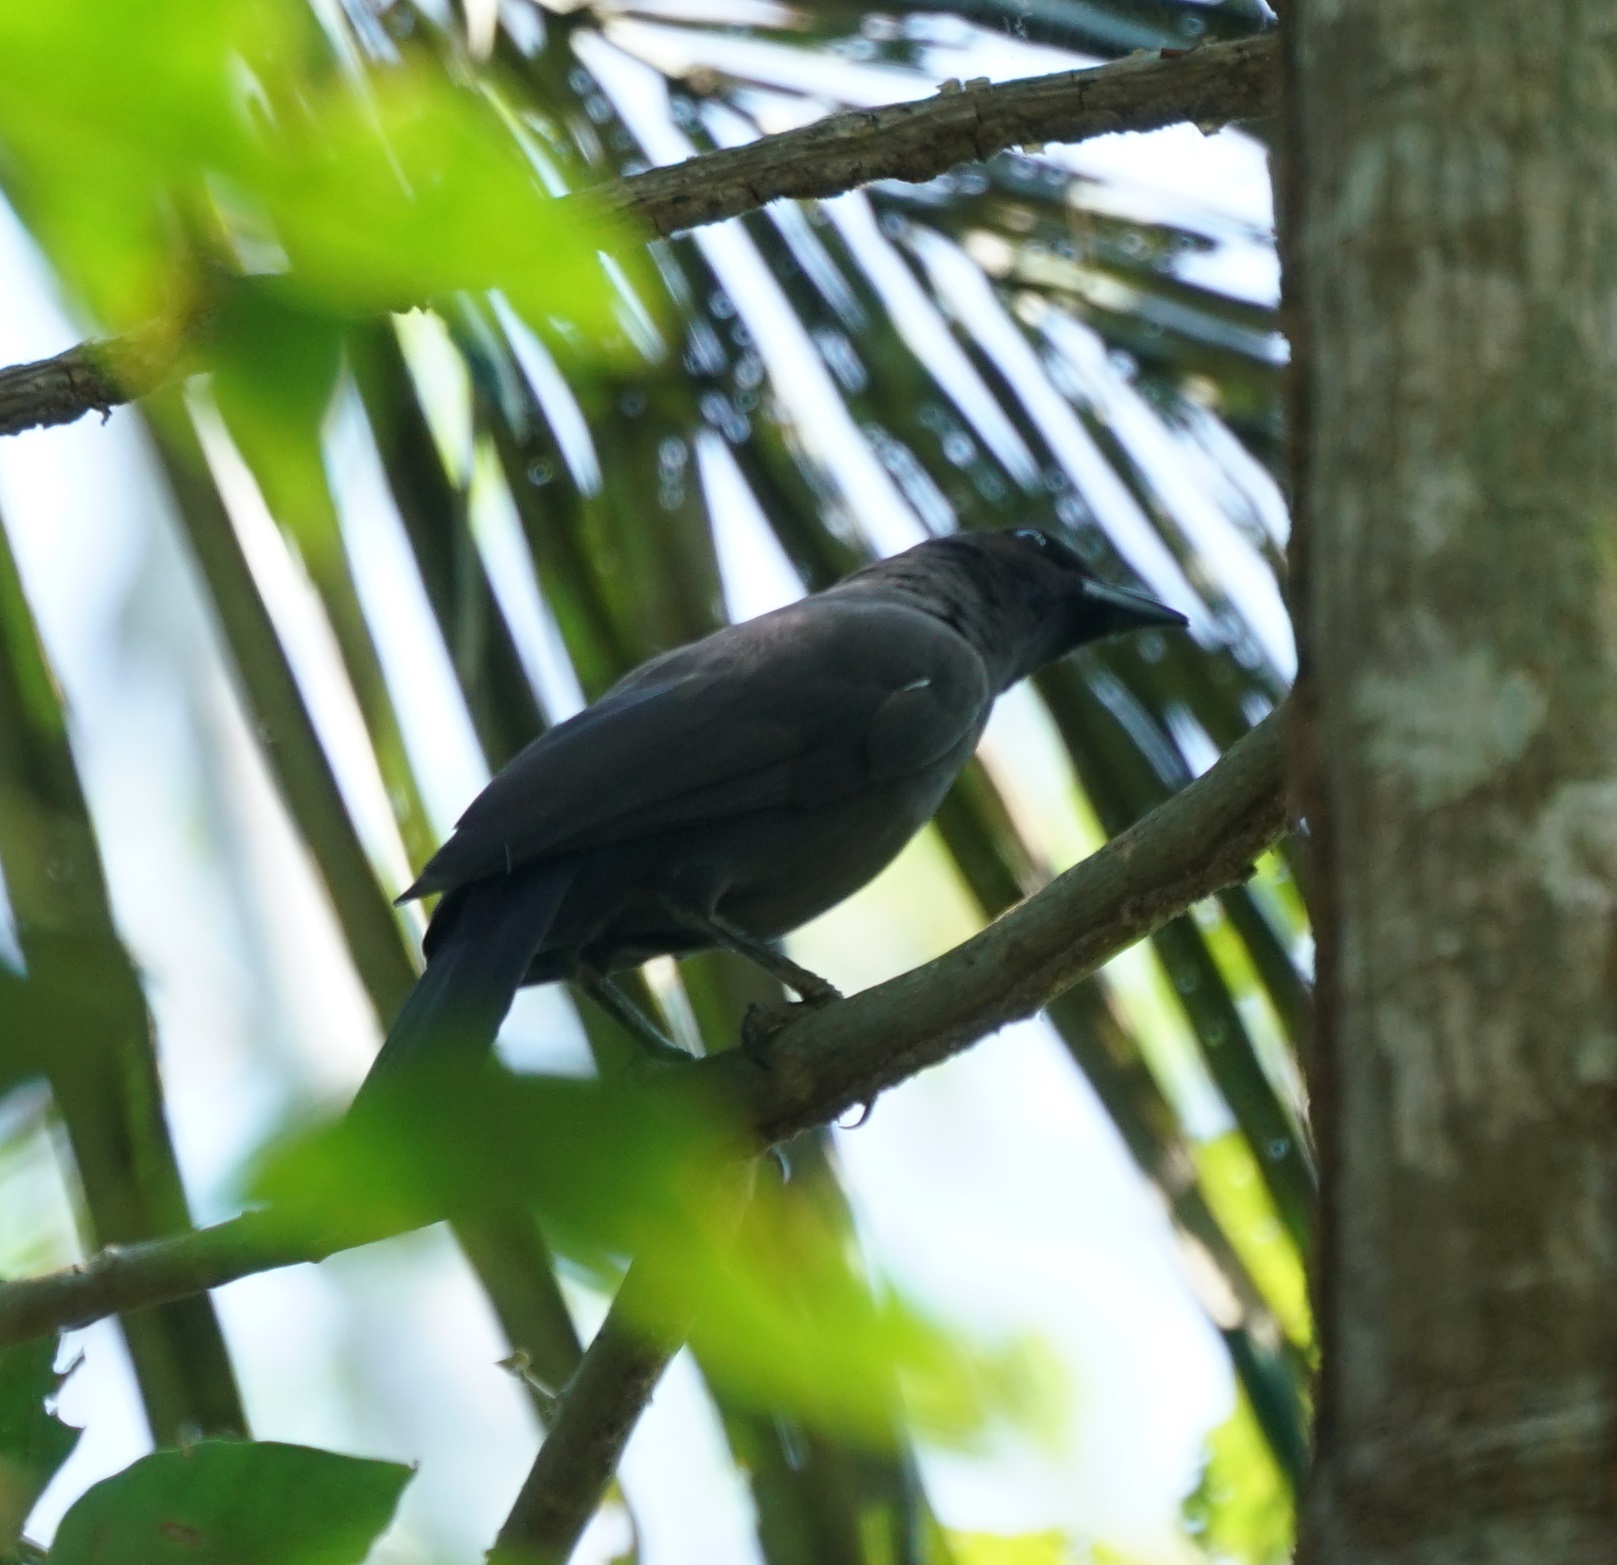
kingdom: Animalia
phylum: Chordata
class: Aves
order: Passeriformes
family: Corvidae
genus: Cyanocorax
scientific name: Cyanocorax cyanomelas
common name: Purplish jay
